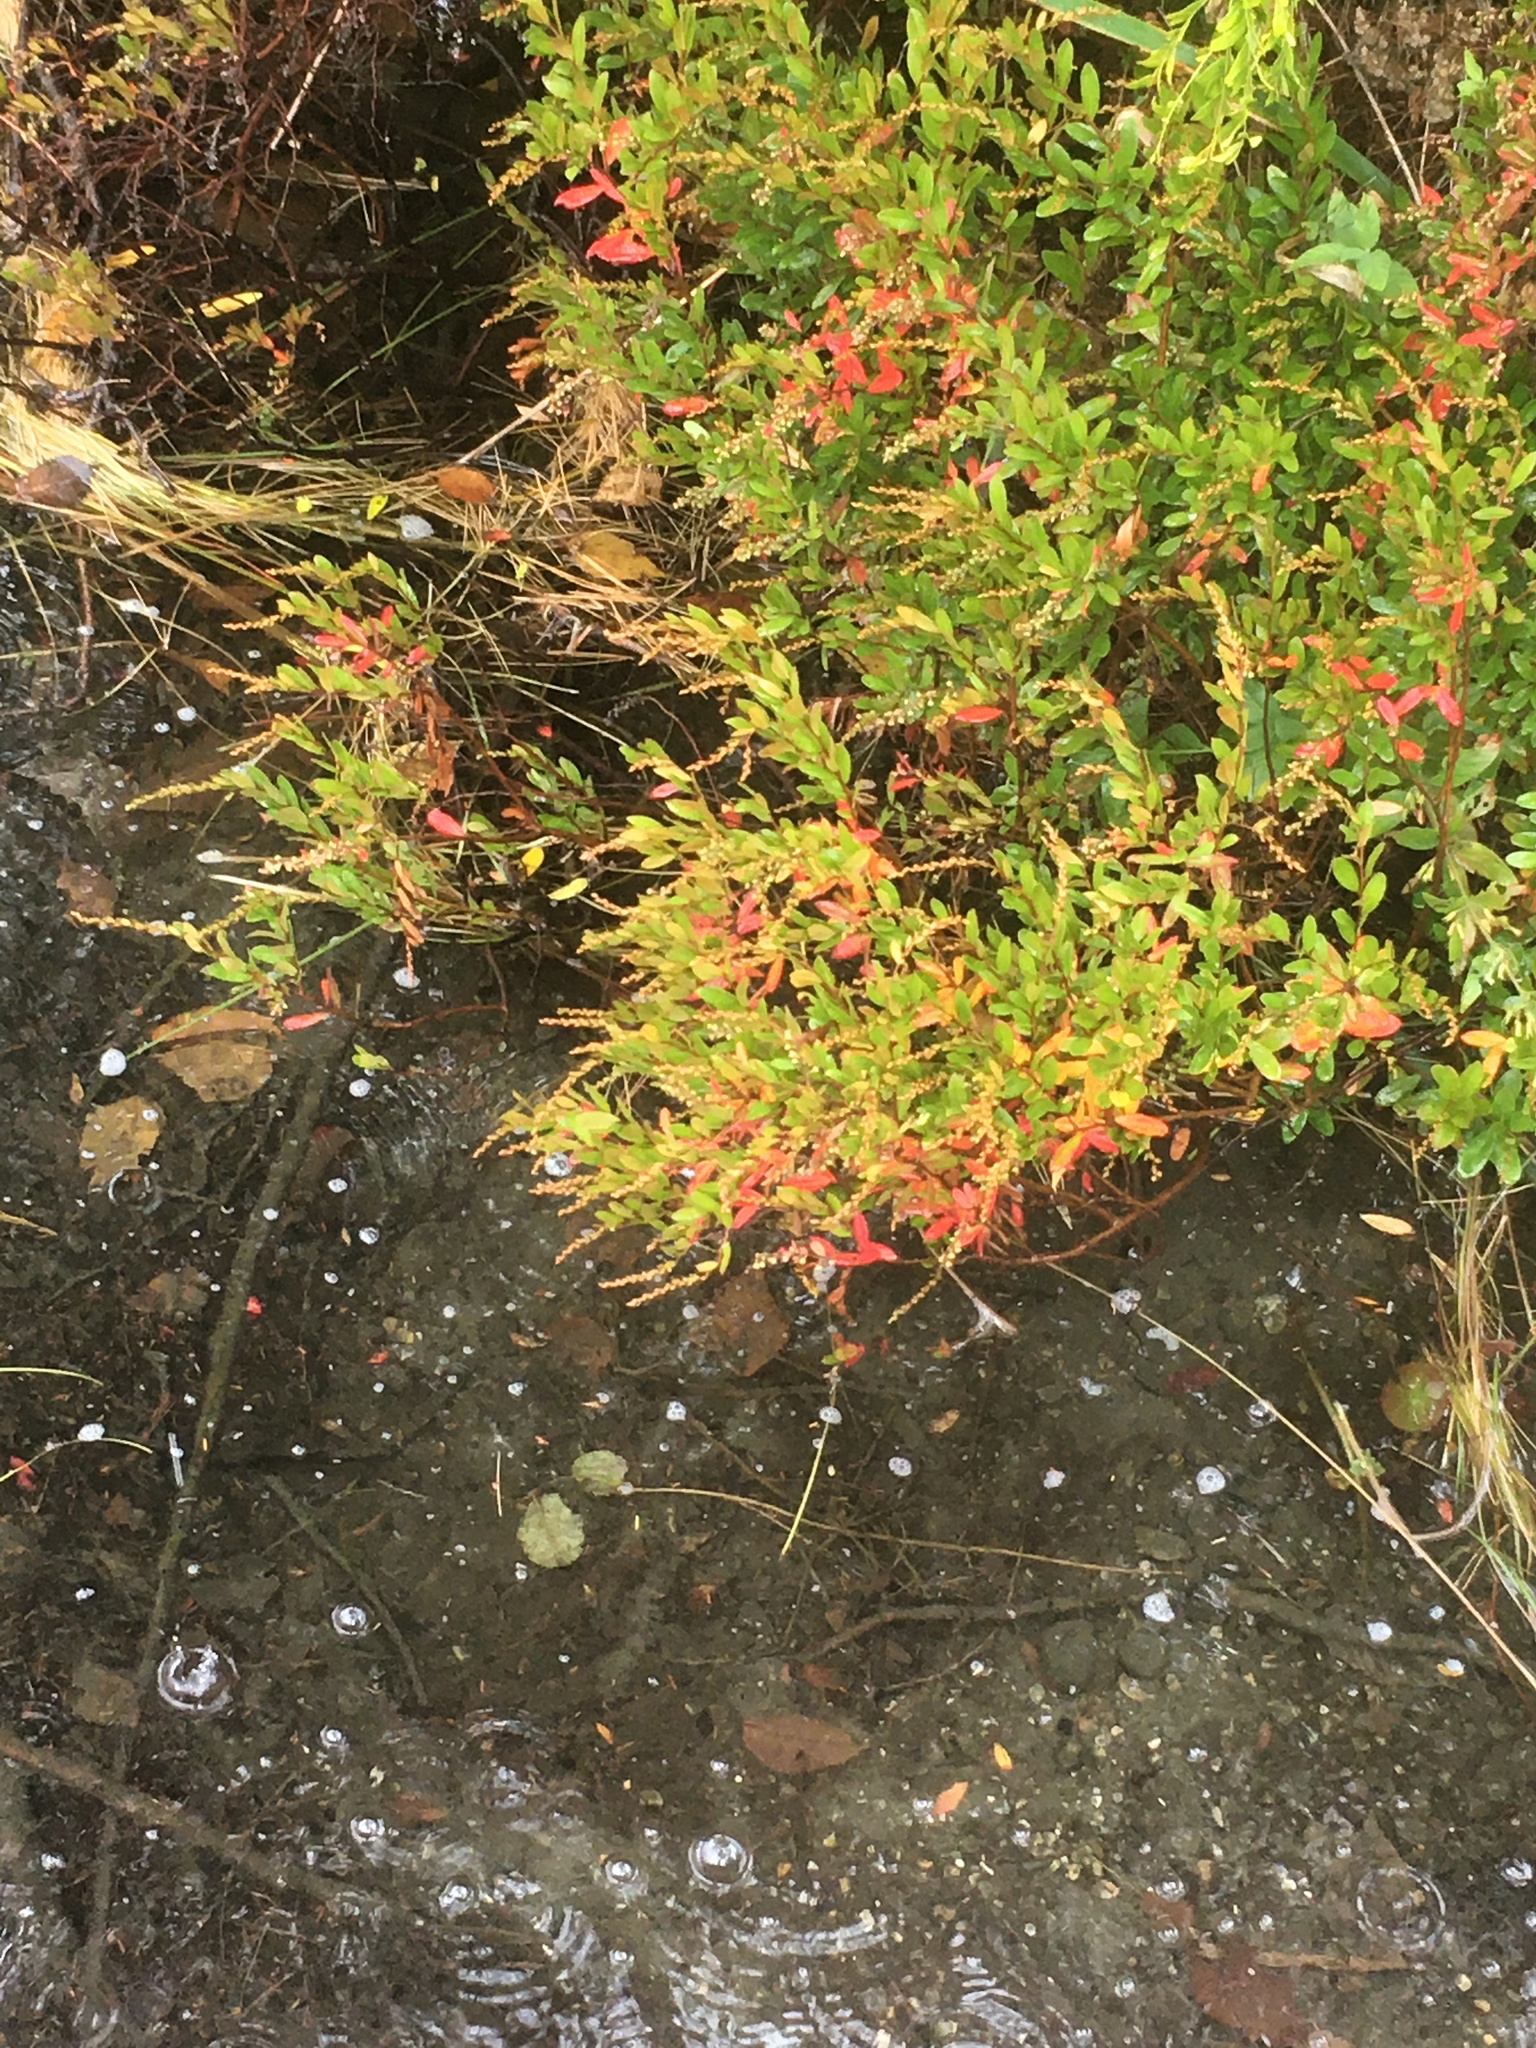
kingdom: Plantae
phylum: Tracheophyta
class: Magnoliopsida
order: Ericales
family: Ericaceae
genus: Chamaedaphne
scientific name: Chamaedaphne calyculata
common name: Leatherleaf
